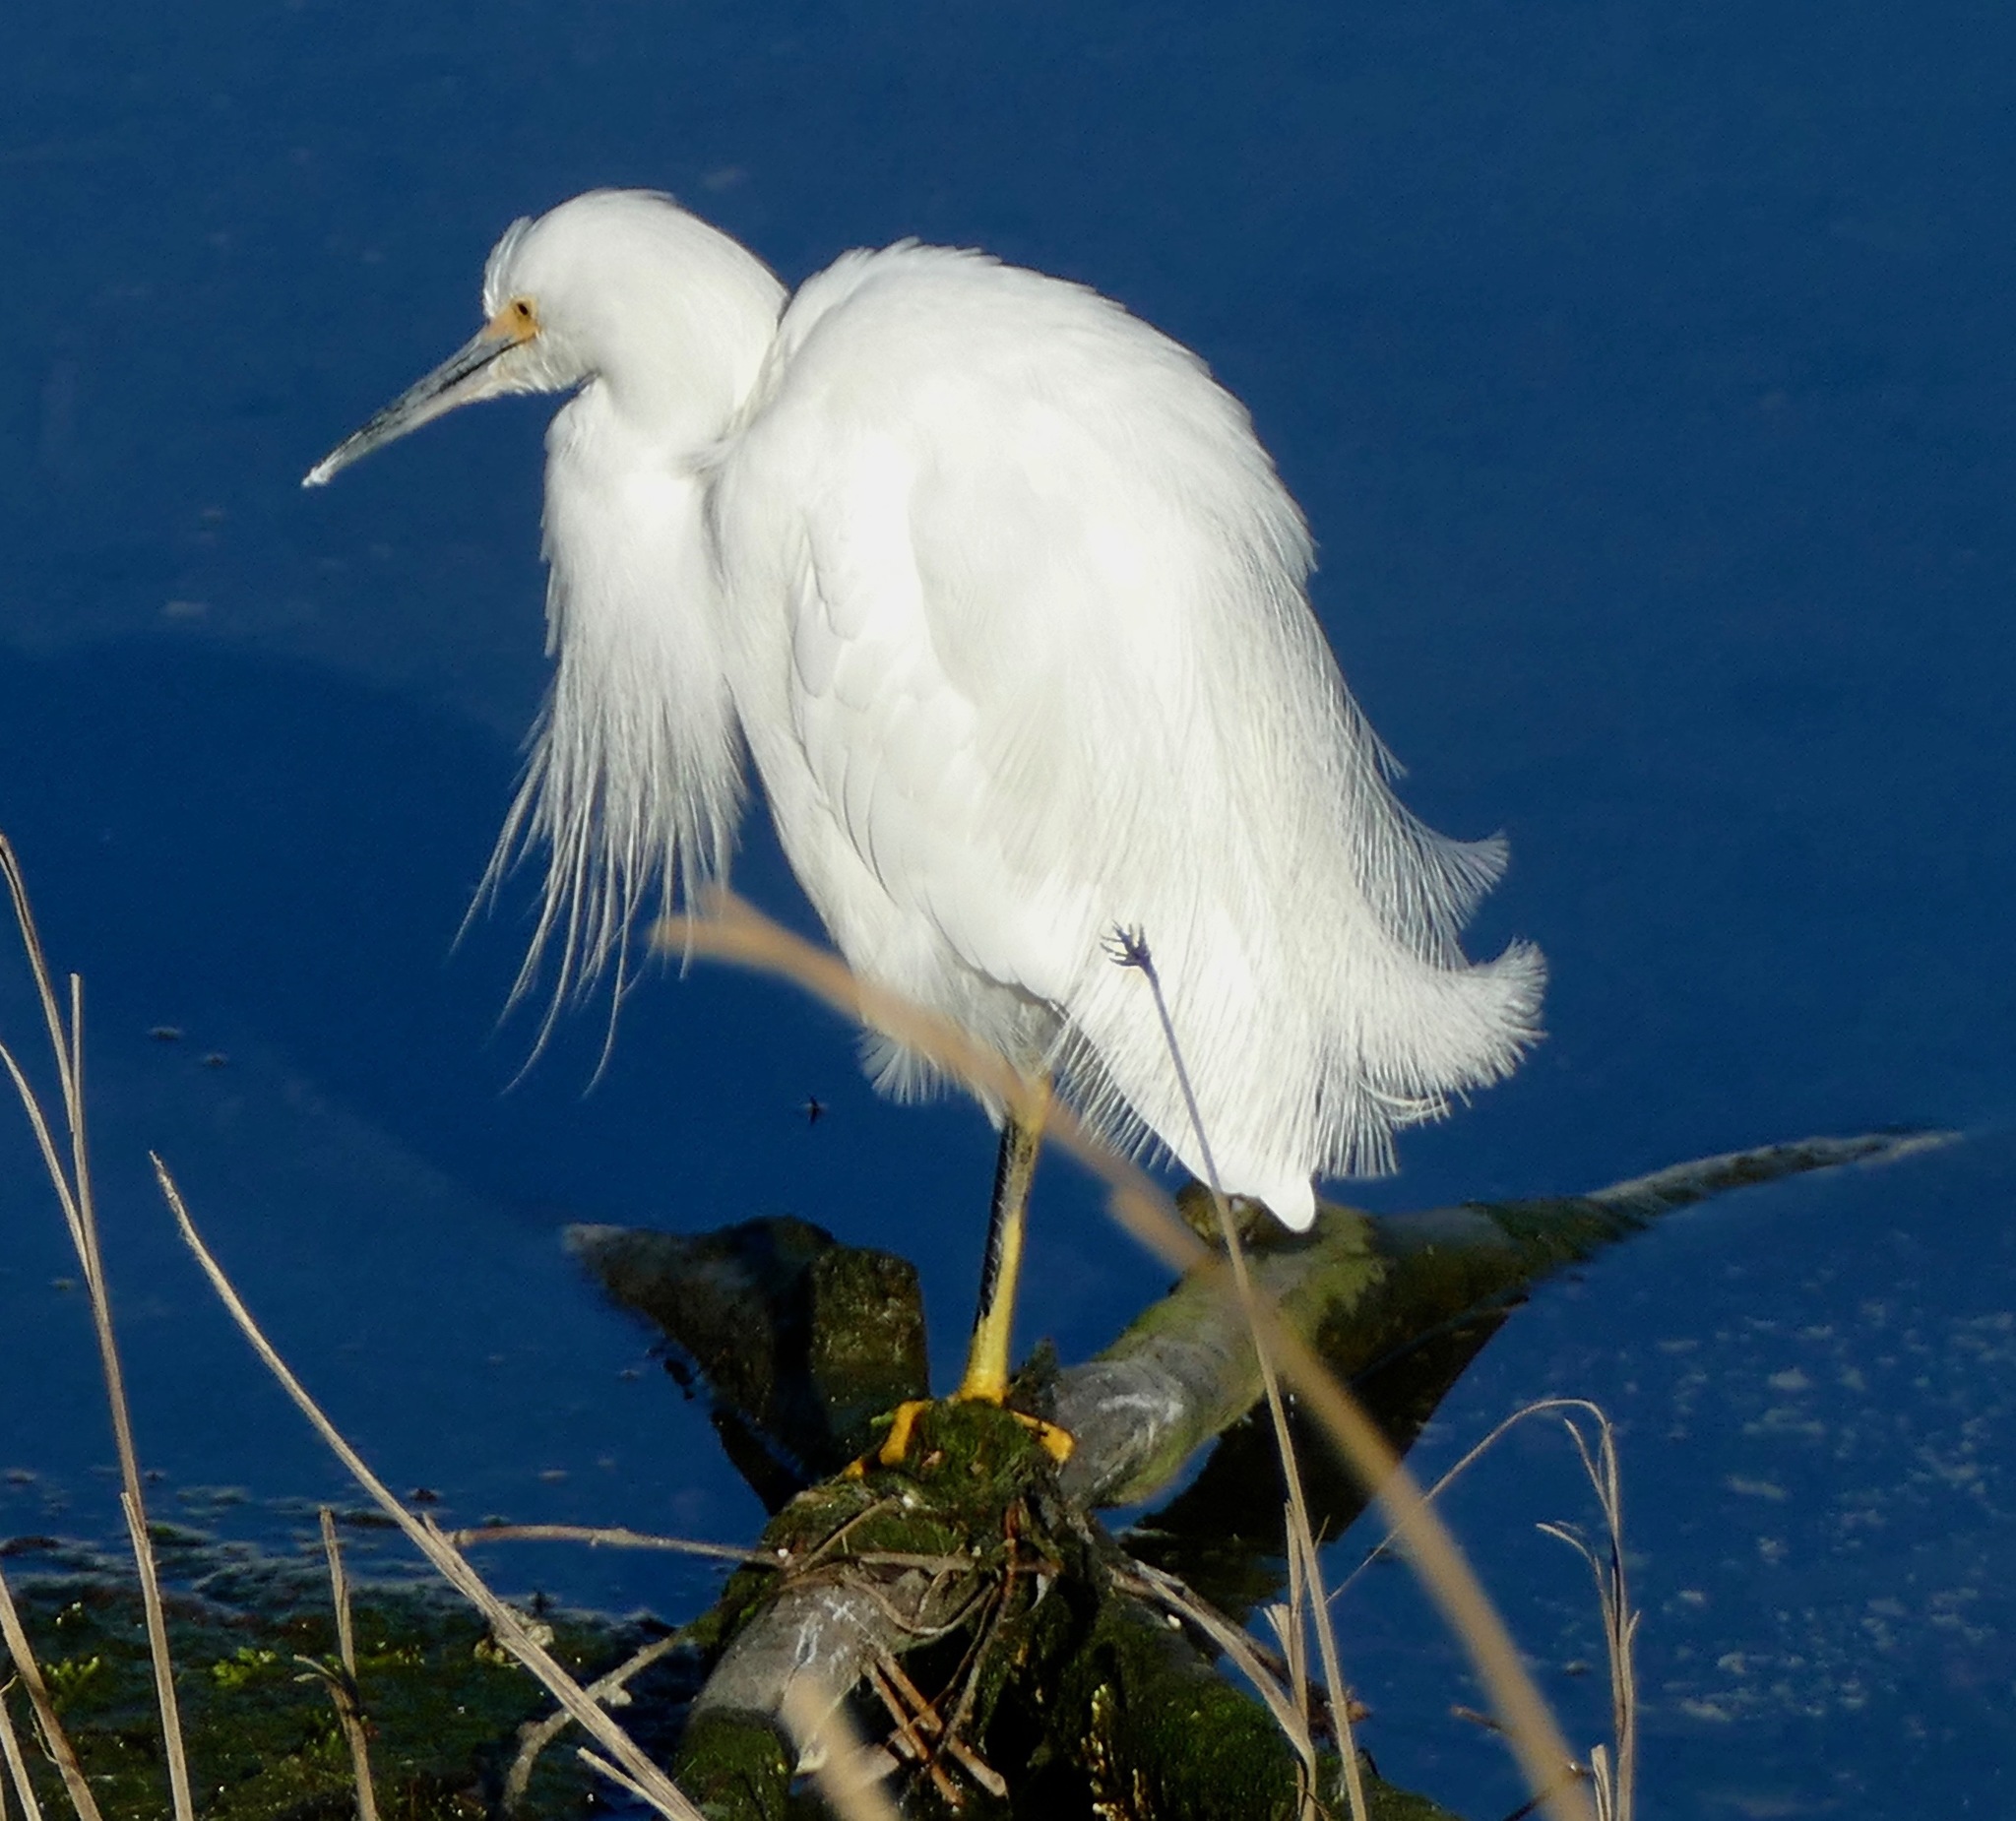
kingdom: Animalia
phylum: Chordata
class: Aves
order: Pelecaniformes
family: Ardeidae
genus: Egretta
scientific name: Egretta thula
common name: Snowy egret
